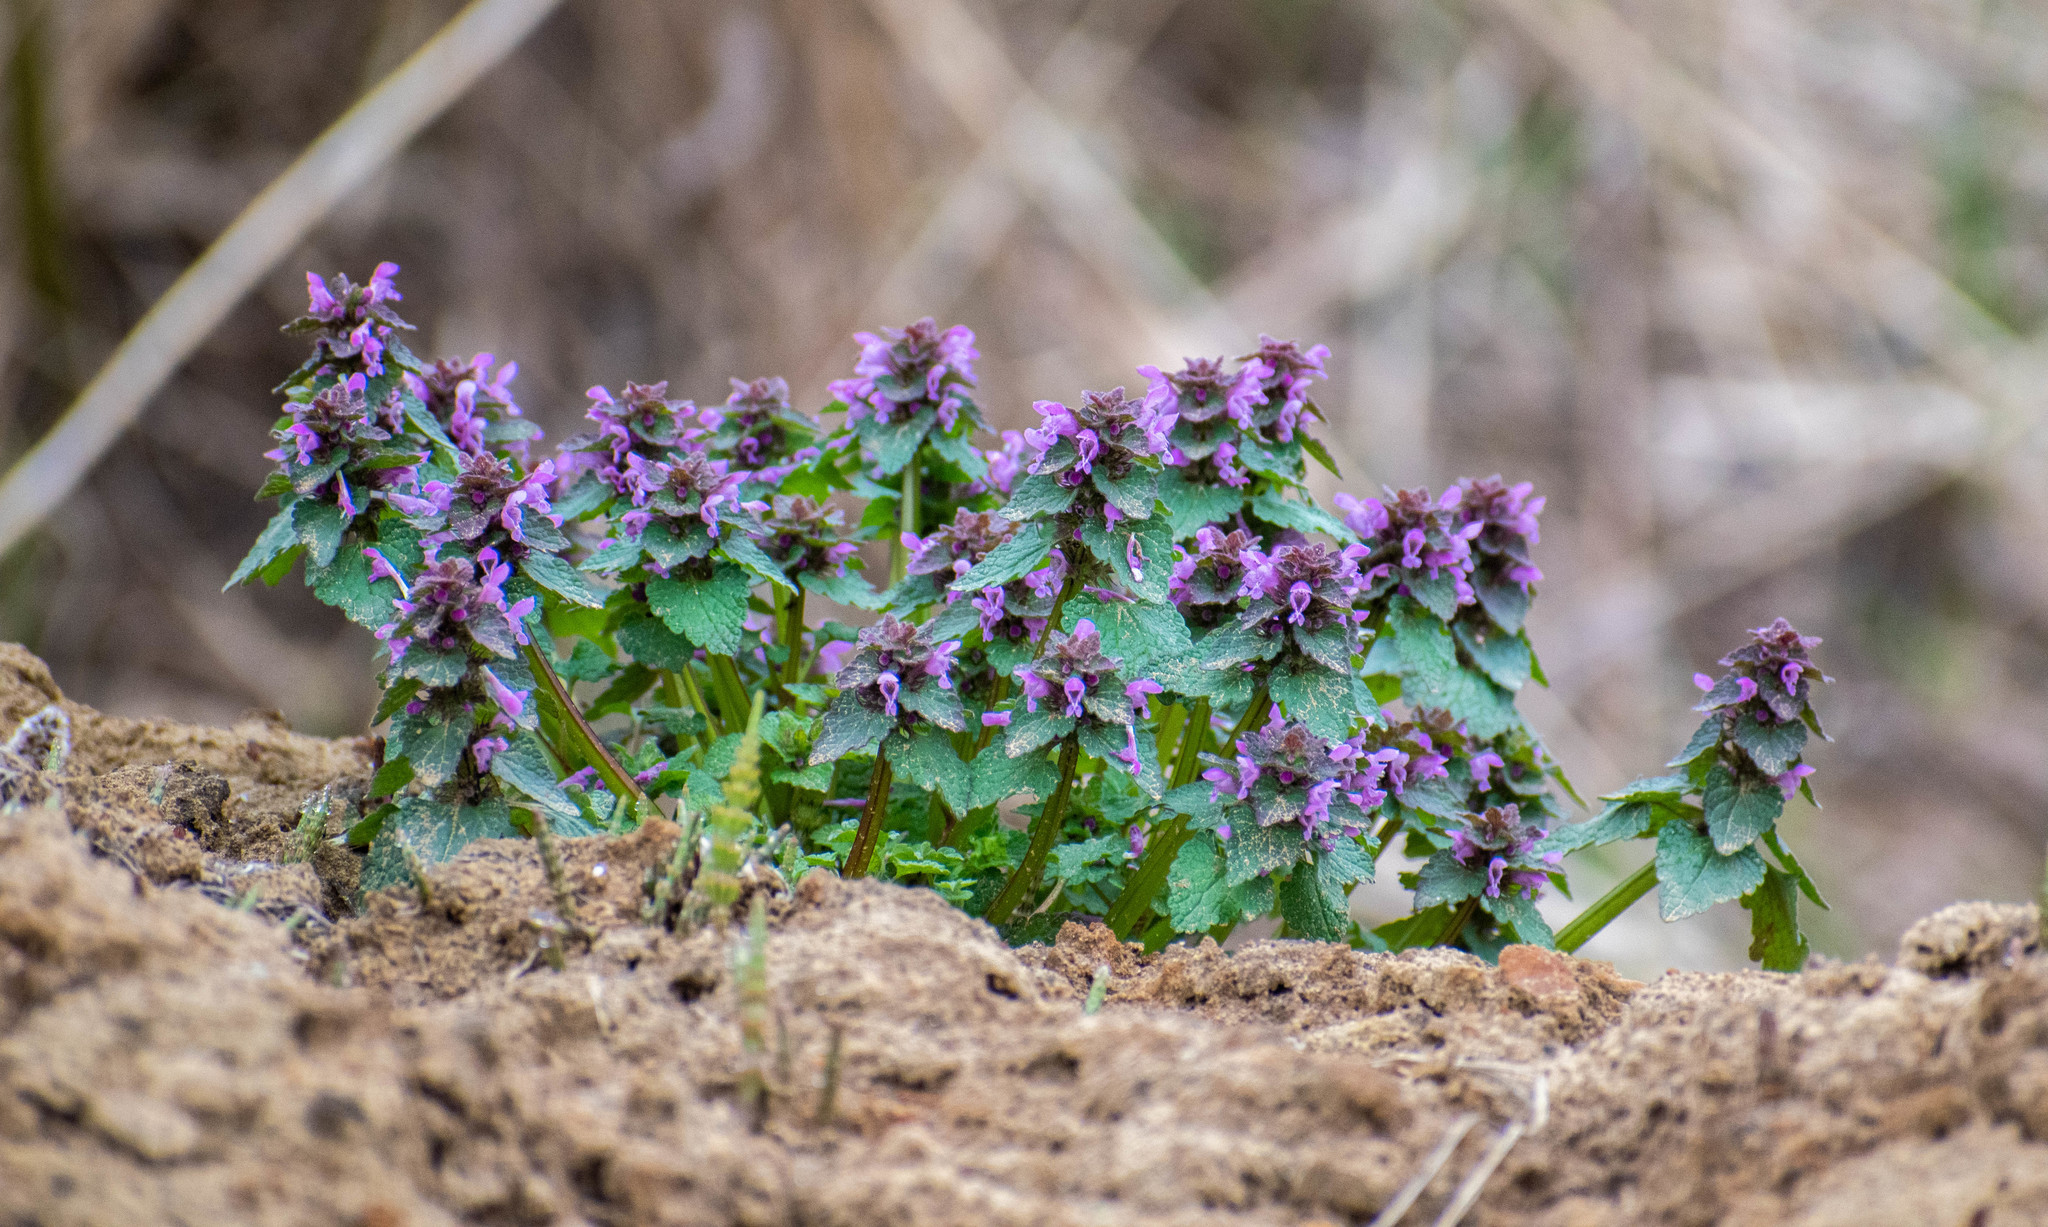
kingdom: Plantae
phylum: Tracheophyta
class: Magnoliopsida
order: Lamiales
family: Lamiaceae
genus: Lamium
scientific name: Lamium purpureum
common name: Red dead-nettle
